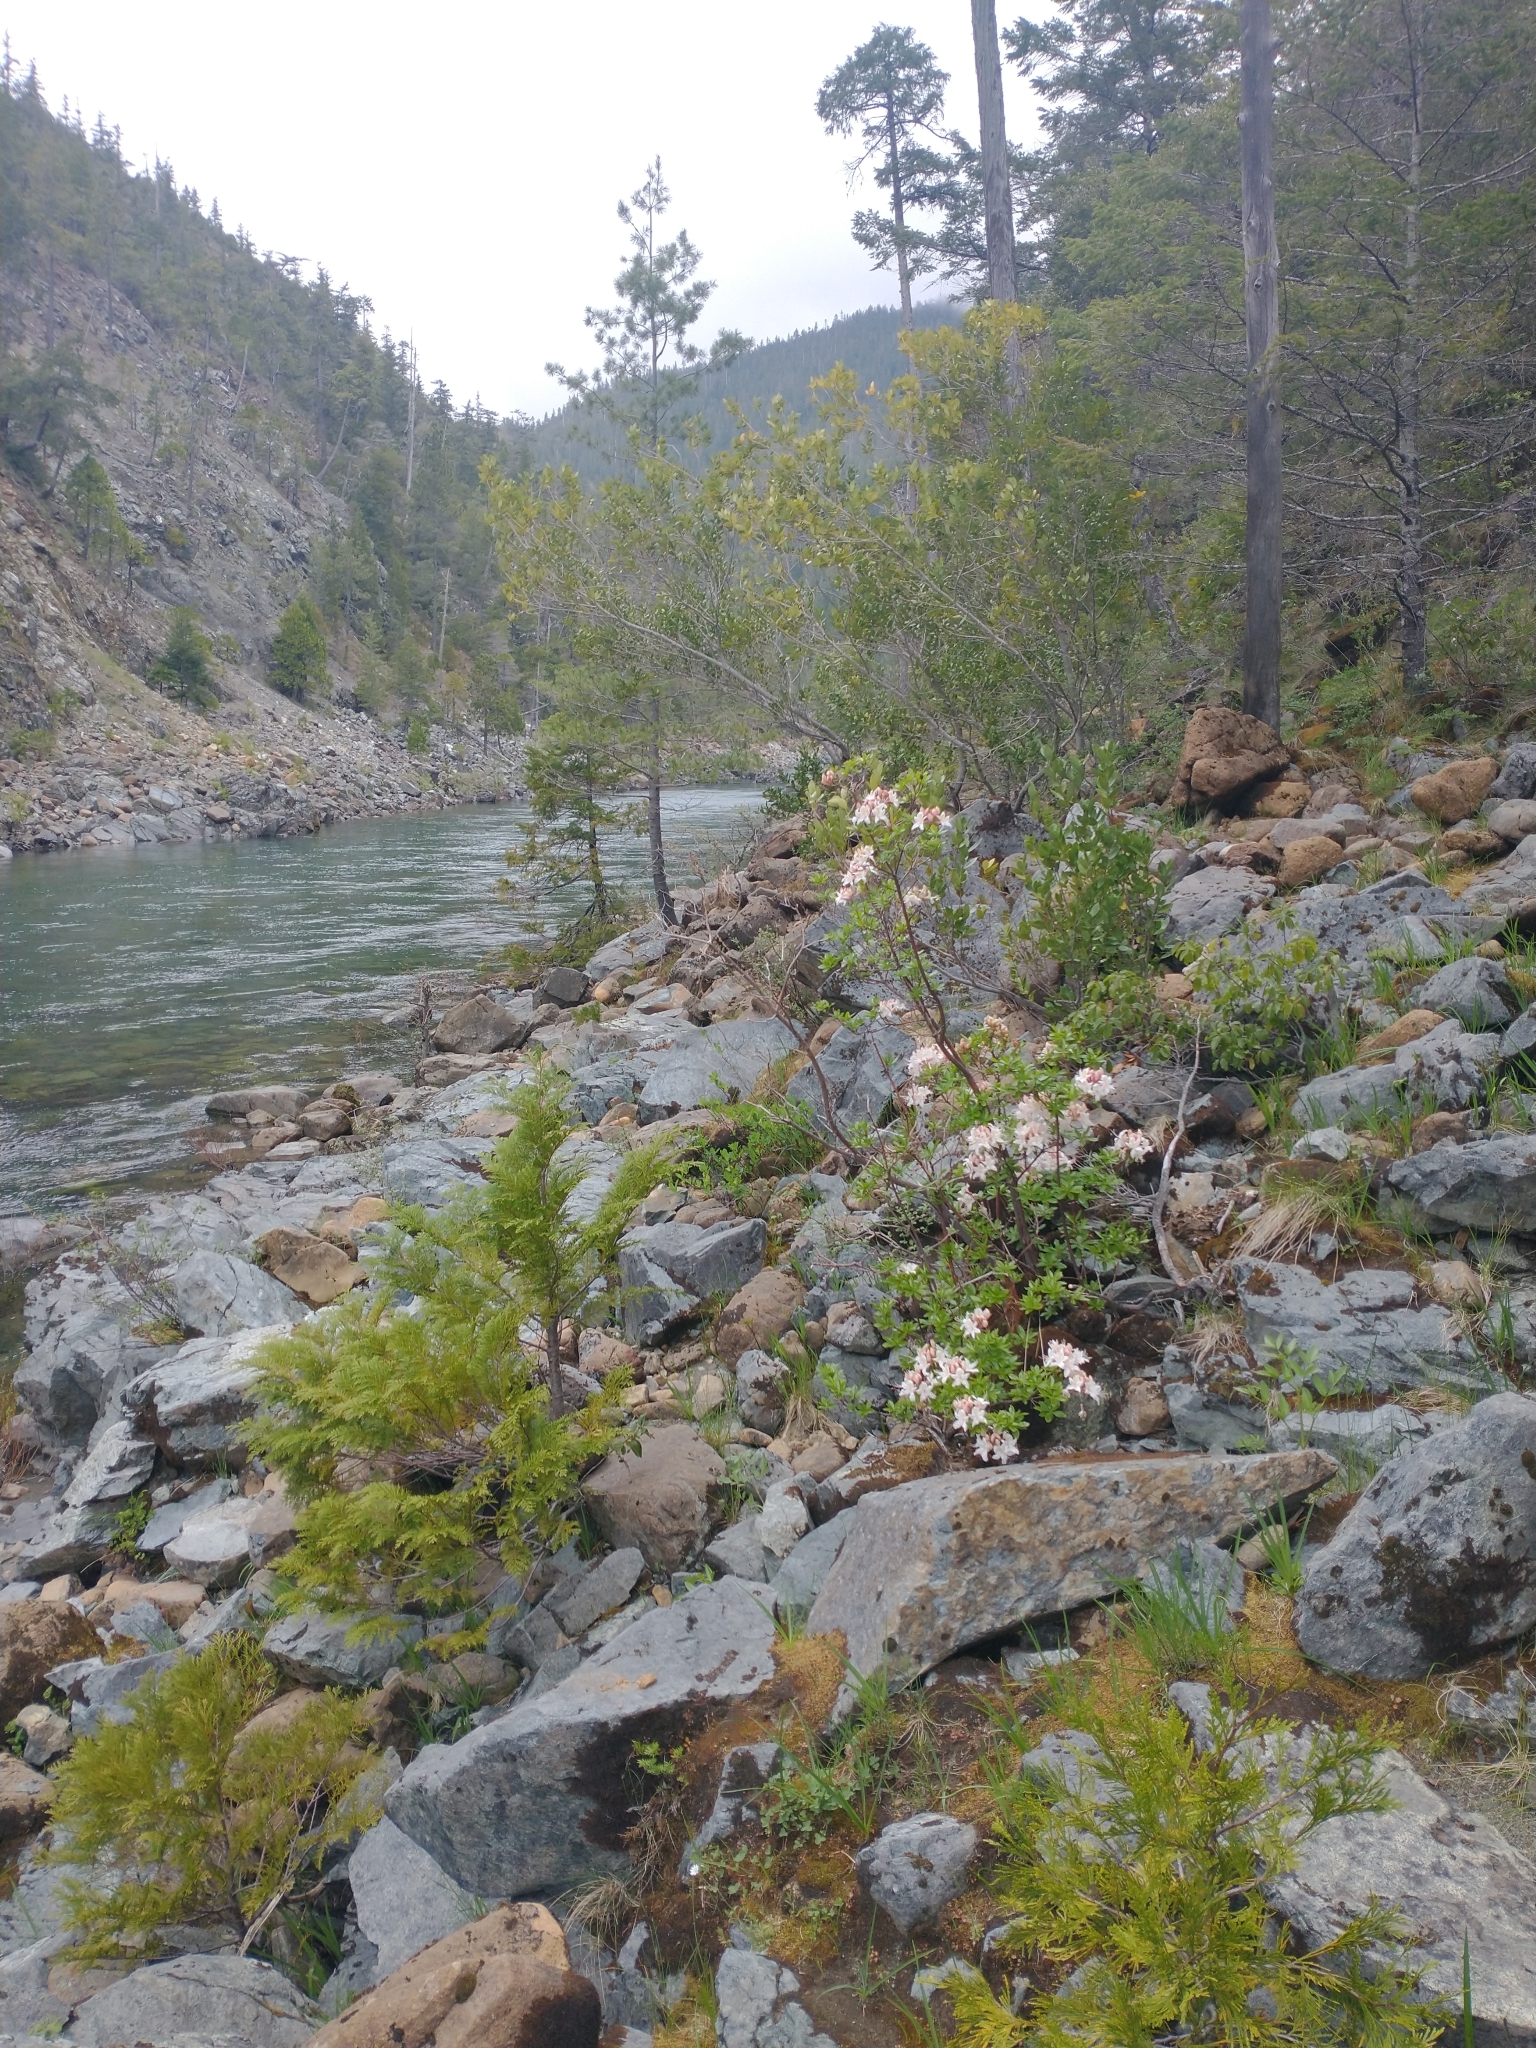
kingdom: Plantae
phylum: Tracheophyta
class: Pinopsida
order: Pinales
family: Cupressaceae
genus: Chamaecyparis
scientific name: Chamaecyparis lawsoniana
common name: Lawson's cypress
